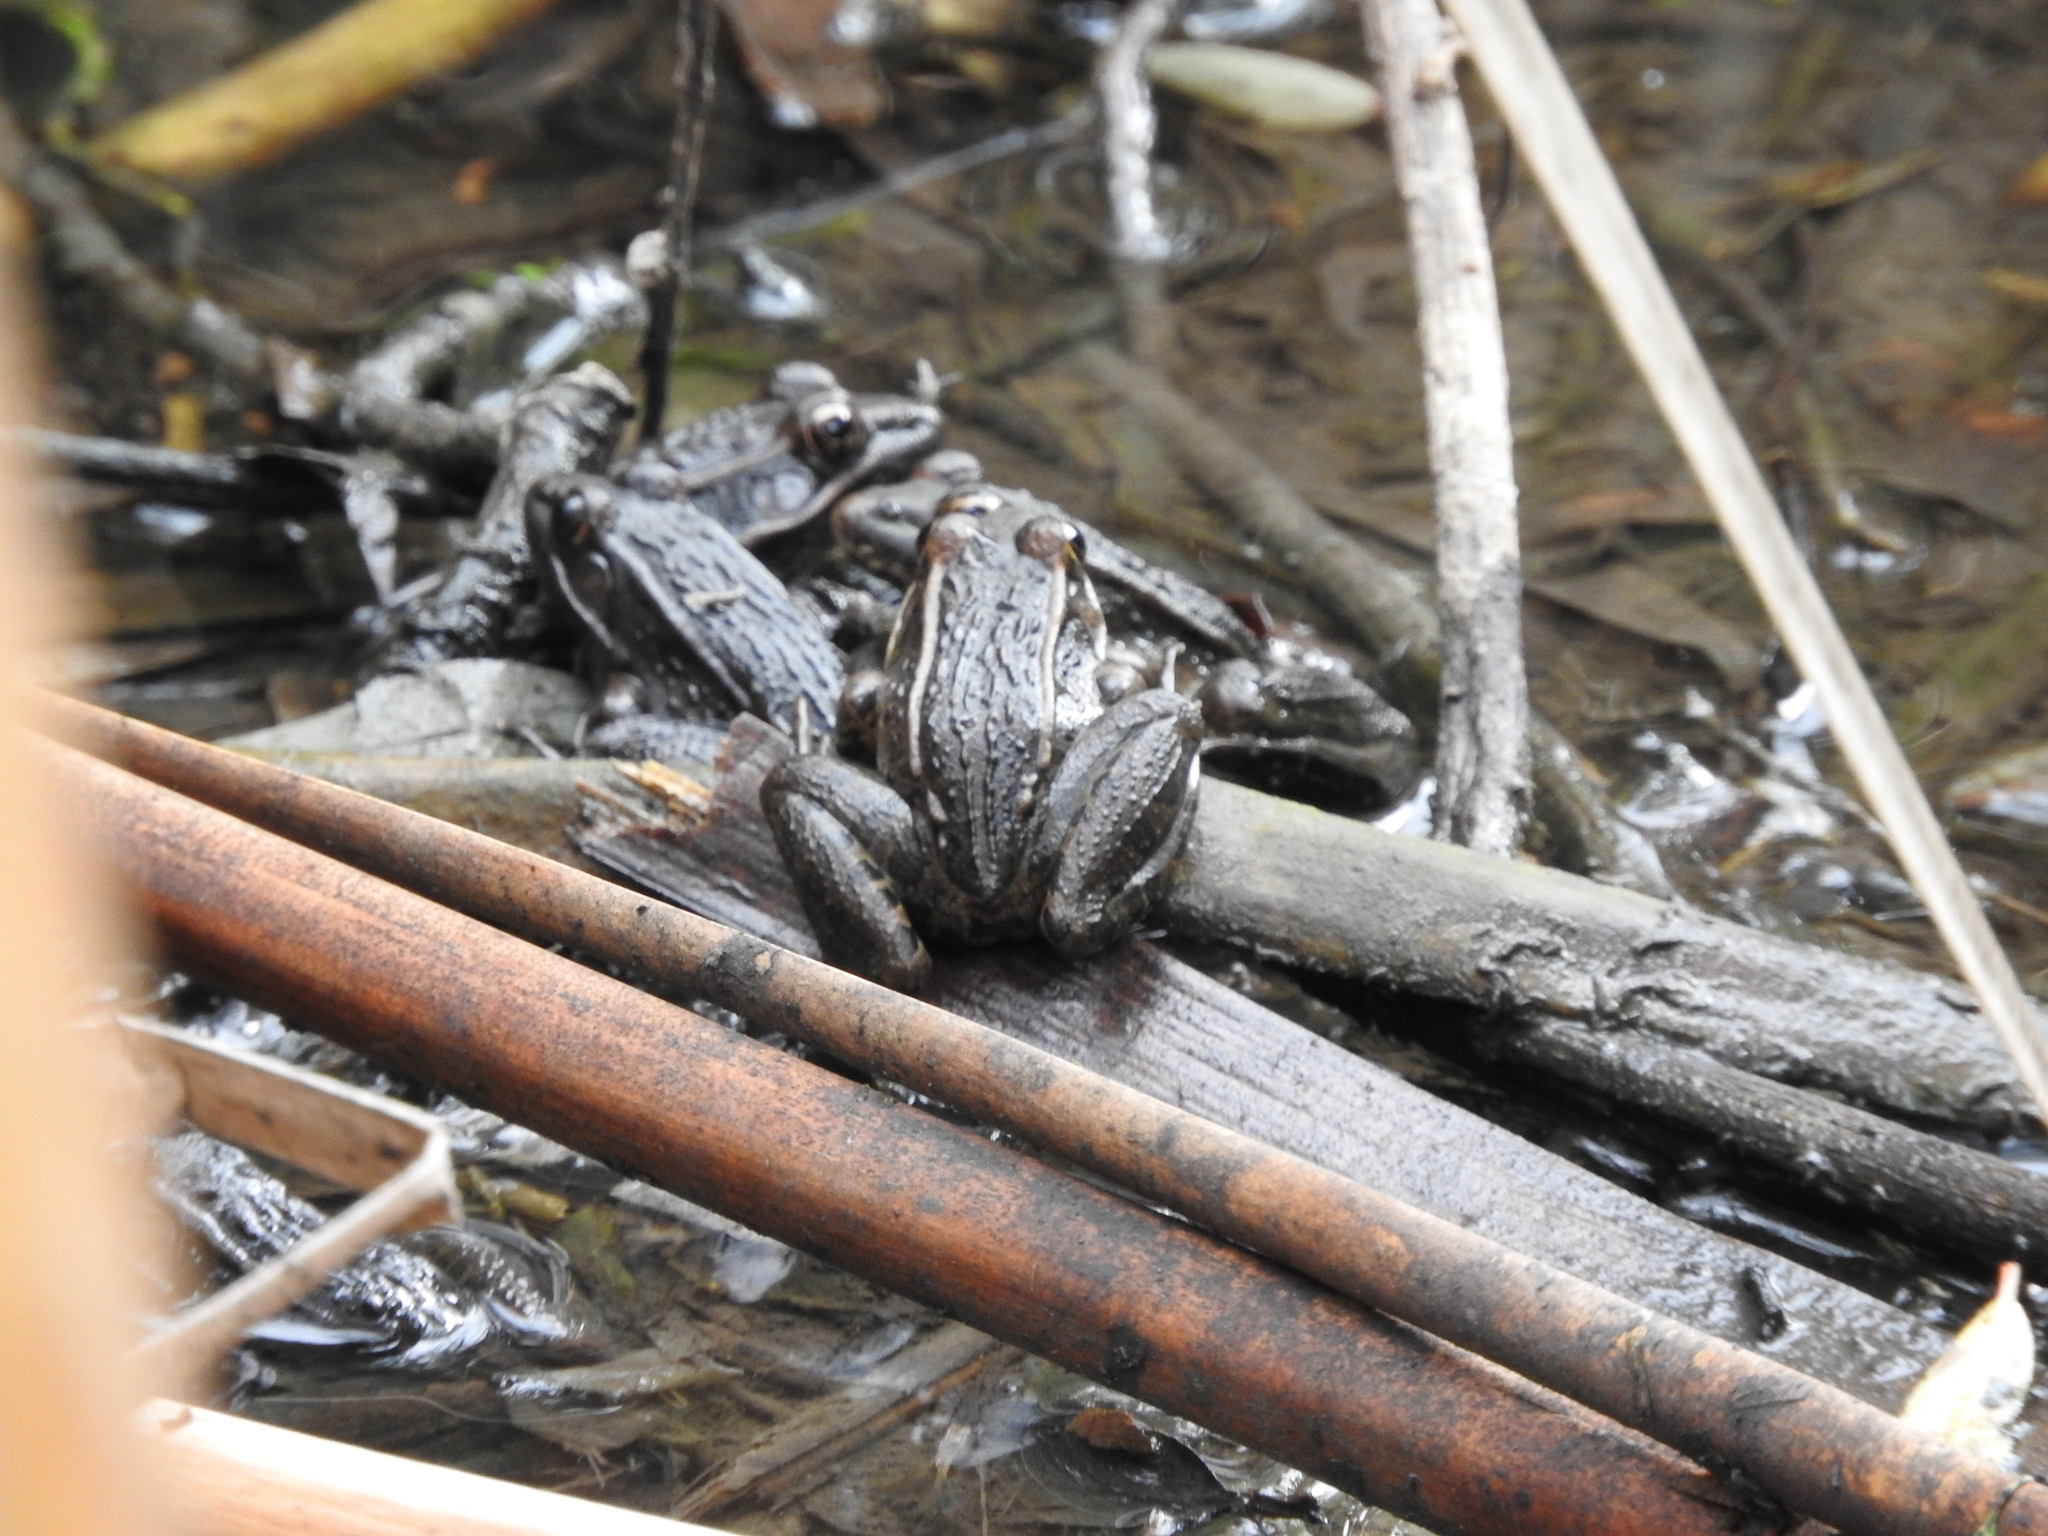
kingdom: Animalia
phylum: Chordata
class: Amphibia
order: Anura
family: Ranidae
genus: Lithobates
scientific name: Lithobates neovolcanicus
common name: Transverse volcanic leopard frog
